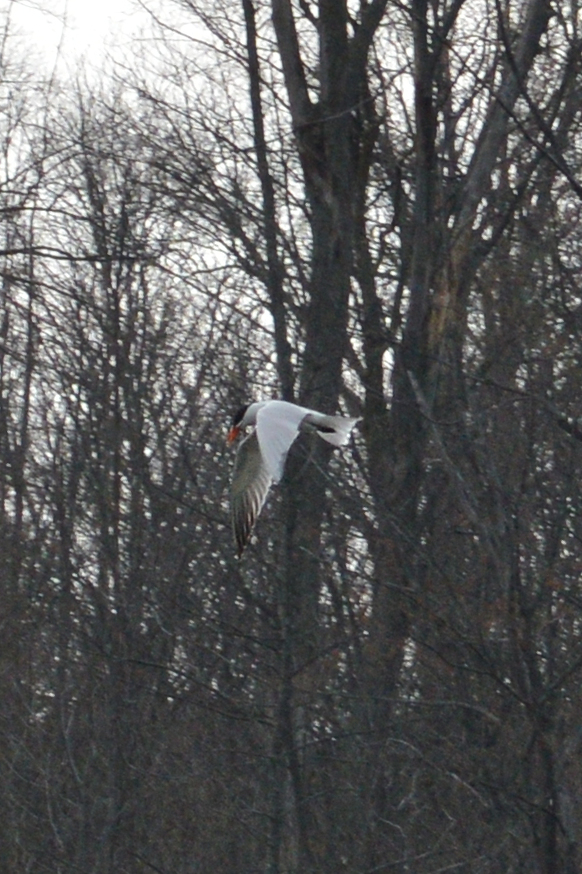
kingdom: Animalia
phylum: Chordata
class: Aves
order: Charadriiformes
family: Laridae
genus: Hydroprogne
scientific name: Hydroprogne caspia
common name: Caspian tern
